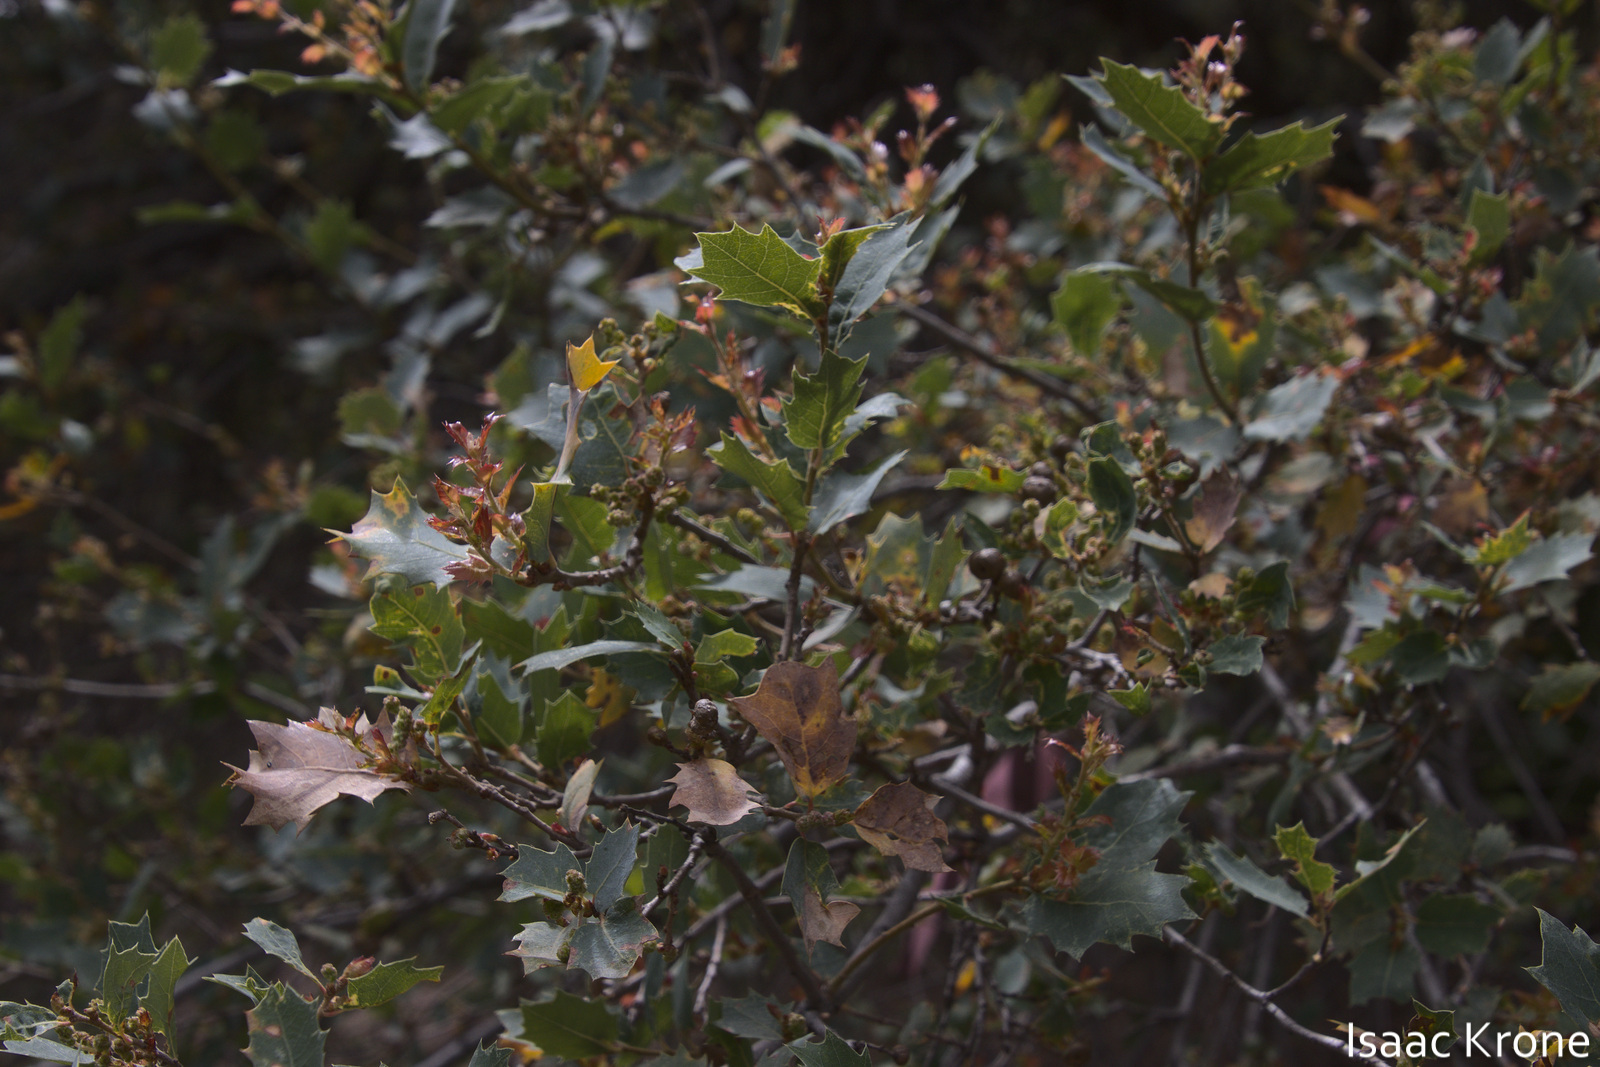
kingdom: Plantae
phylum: Tracheophyta
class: Magnoliopsida
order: Fagales
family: Fagaceae
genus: Quercus
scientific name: Quercus ajoensis
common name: Ajo mountain scrub oak
